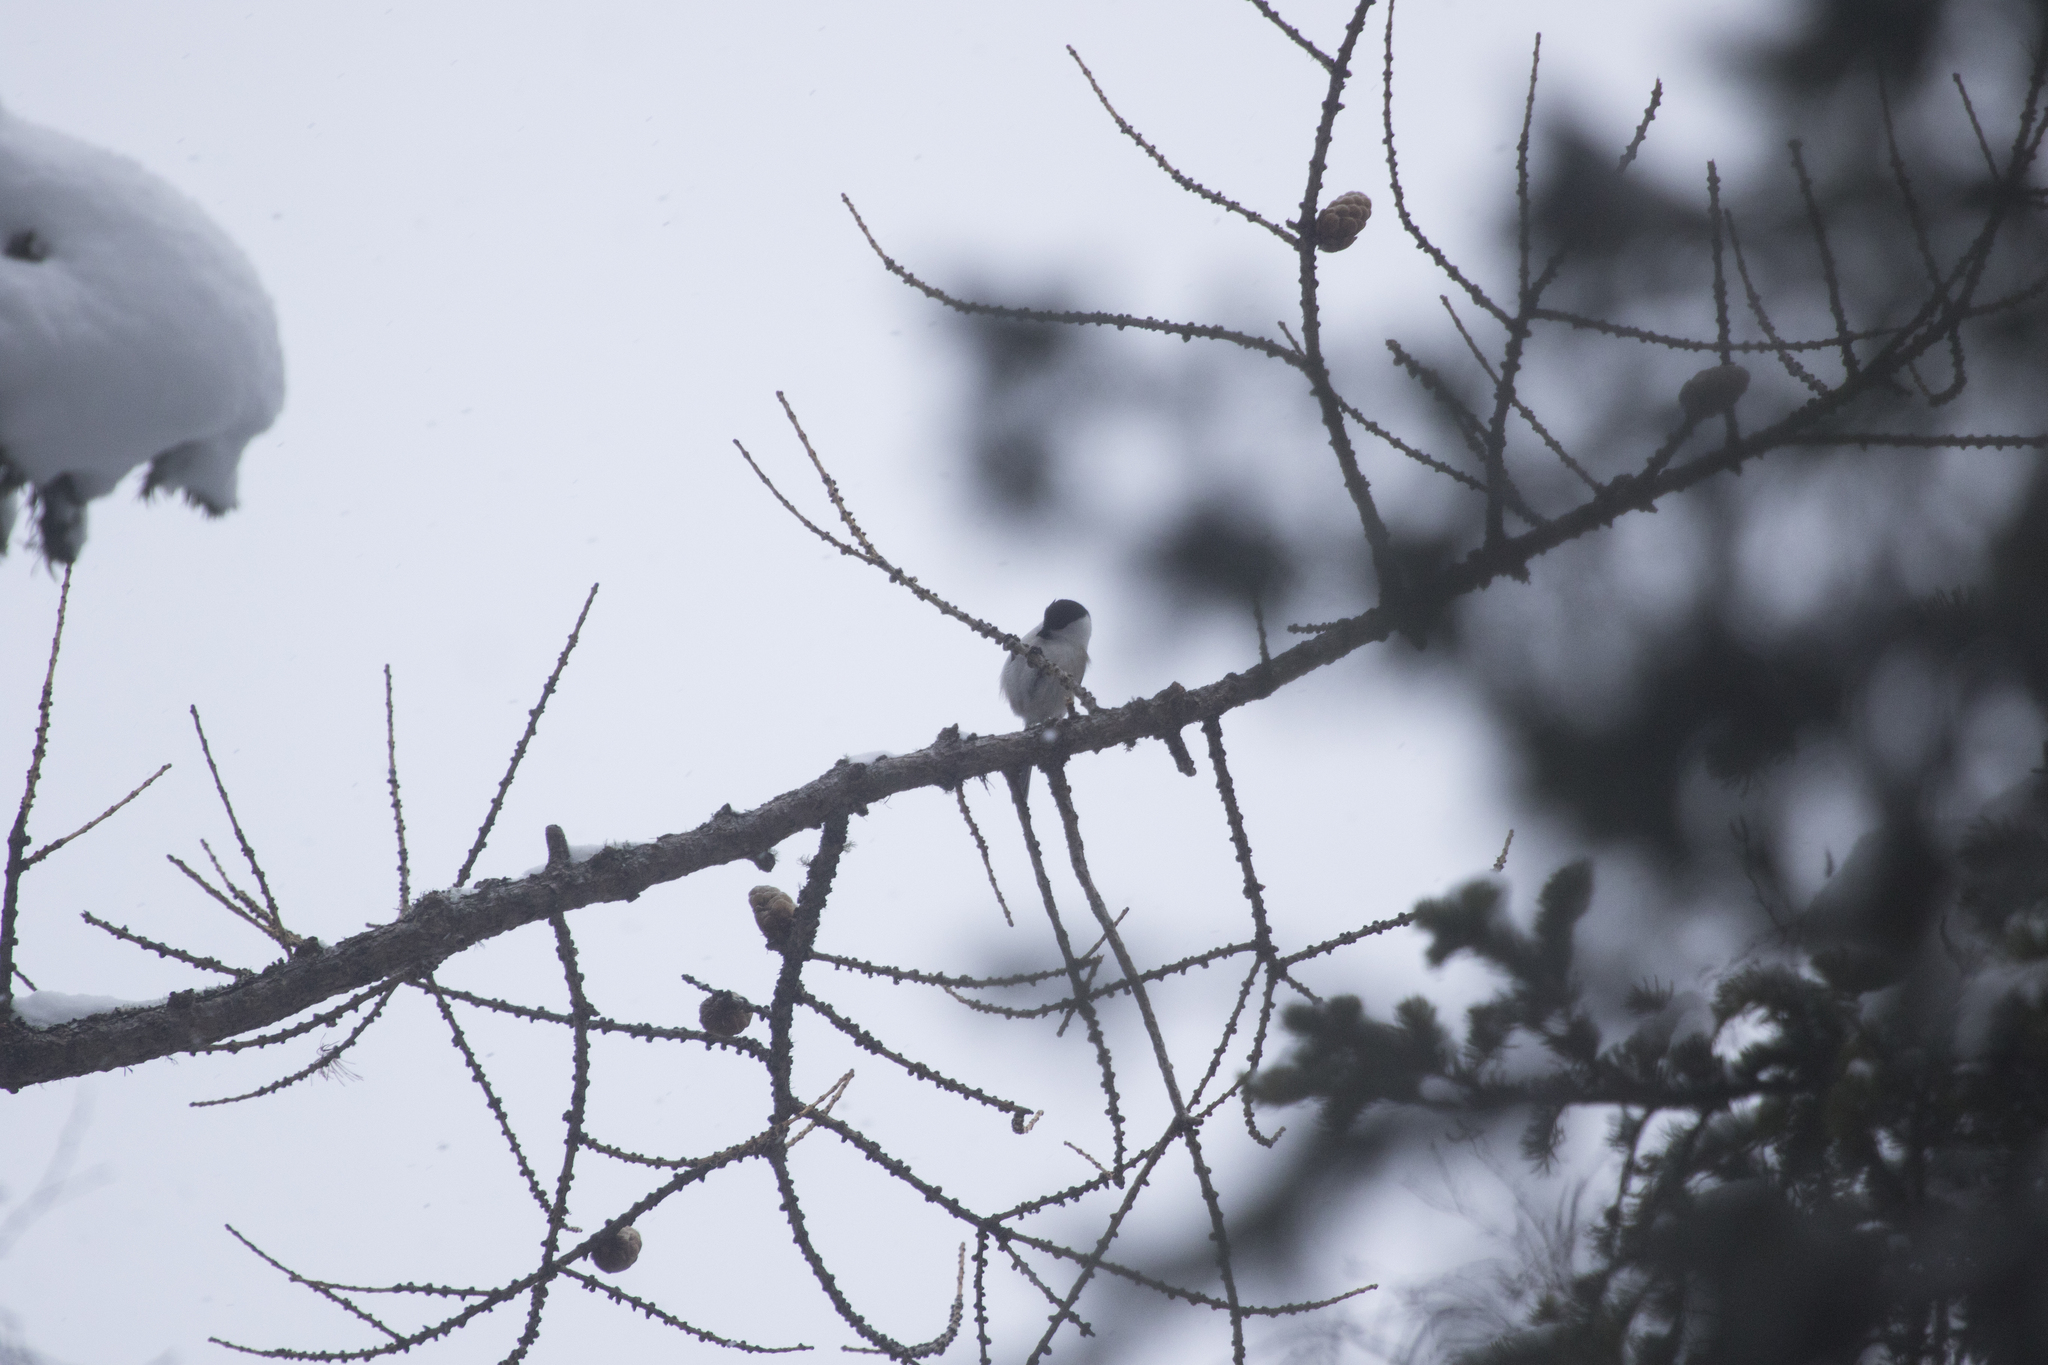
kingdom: Animalia
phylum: Chordata
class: Aves
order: Passeriformes
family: Paridae
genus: Poecile
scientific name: Poecile montanus
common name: Willow tit
